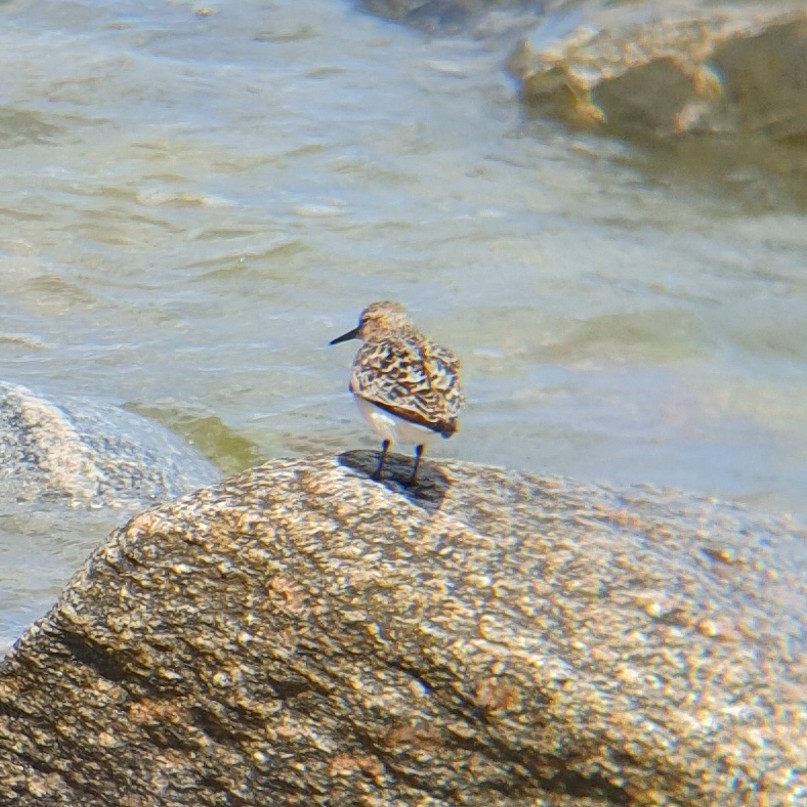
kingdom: Animalia
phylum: Chordata
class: Aves
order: Charadriiformes
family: Scolopacidae
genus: Calidris
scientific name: Calidris alba
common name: Sanderling
